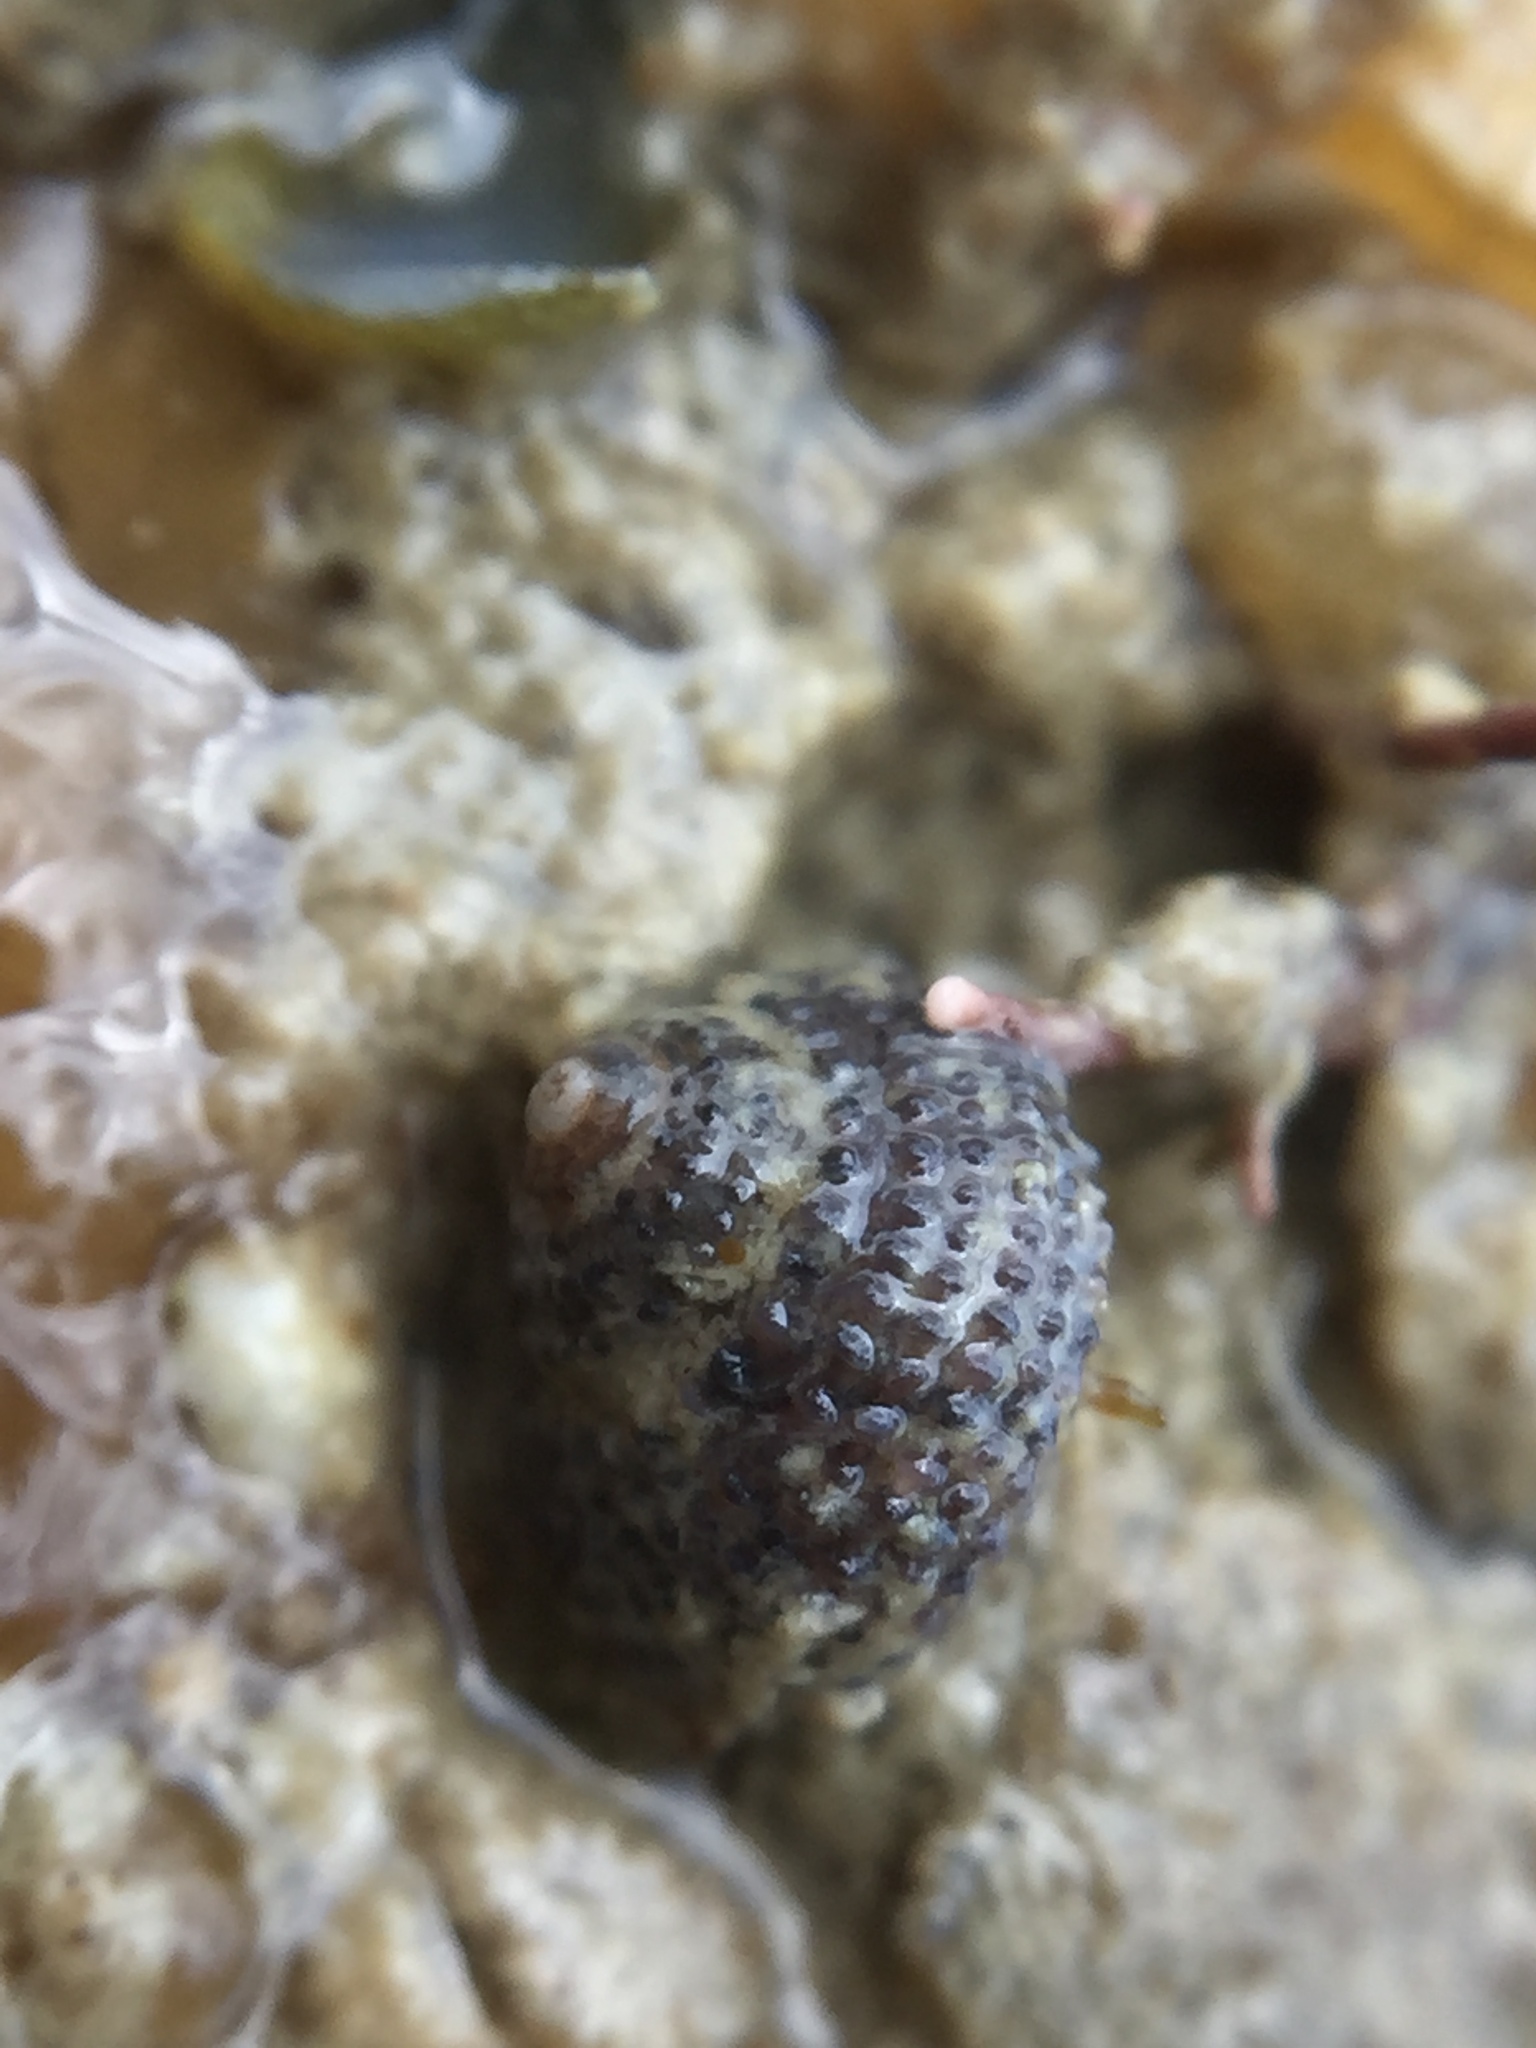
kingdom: Animalia
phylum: Mollusca
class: Gastropoda
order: Seguenziida
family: Chilodontaidae
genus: Herpetopoma
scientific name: Herpetopoma bellum
